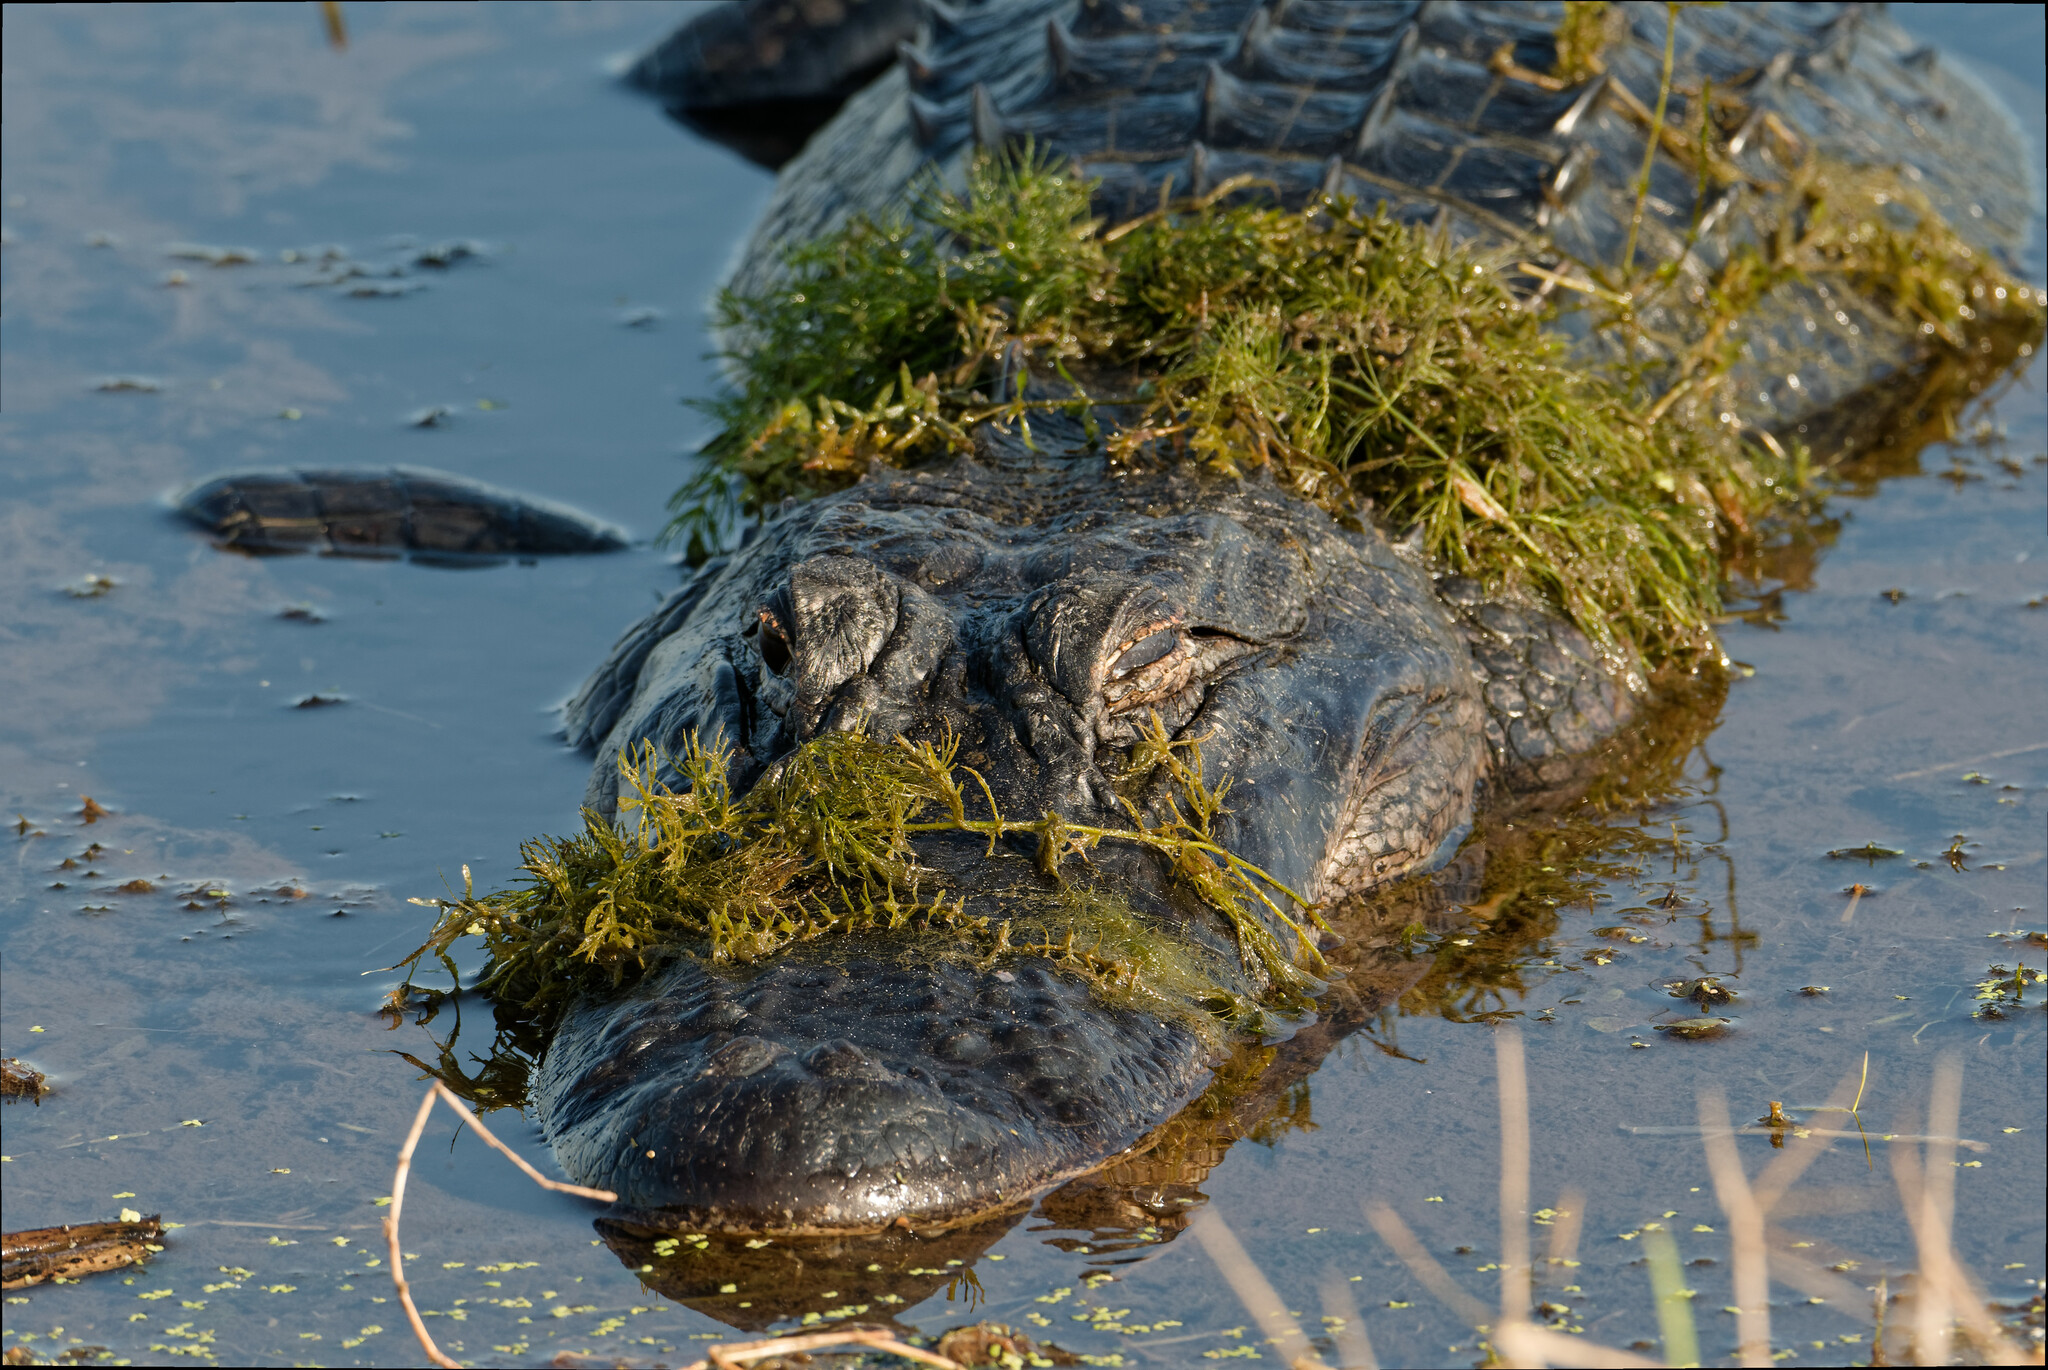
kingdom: Animalia
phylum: Chordata
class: Crocodylia
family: Alligatoridae
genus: Alligator
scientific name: Alligator mississippiensis
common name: American alligator
